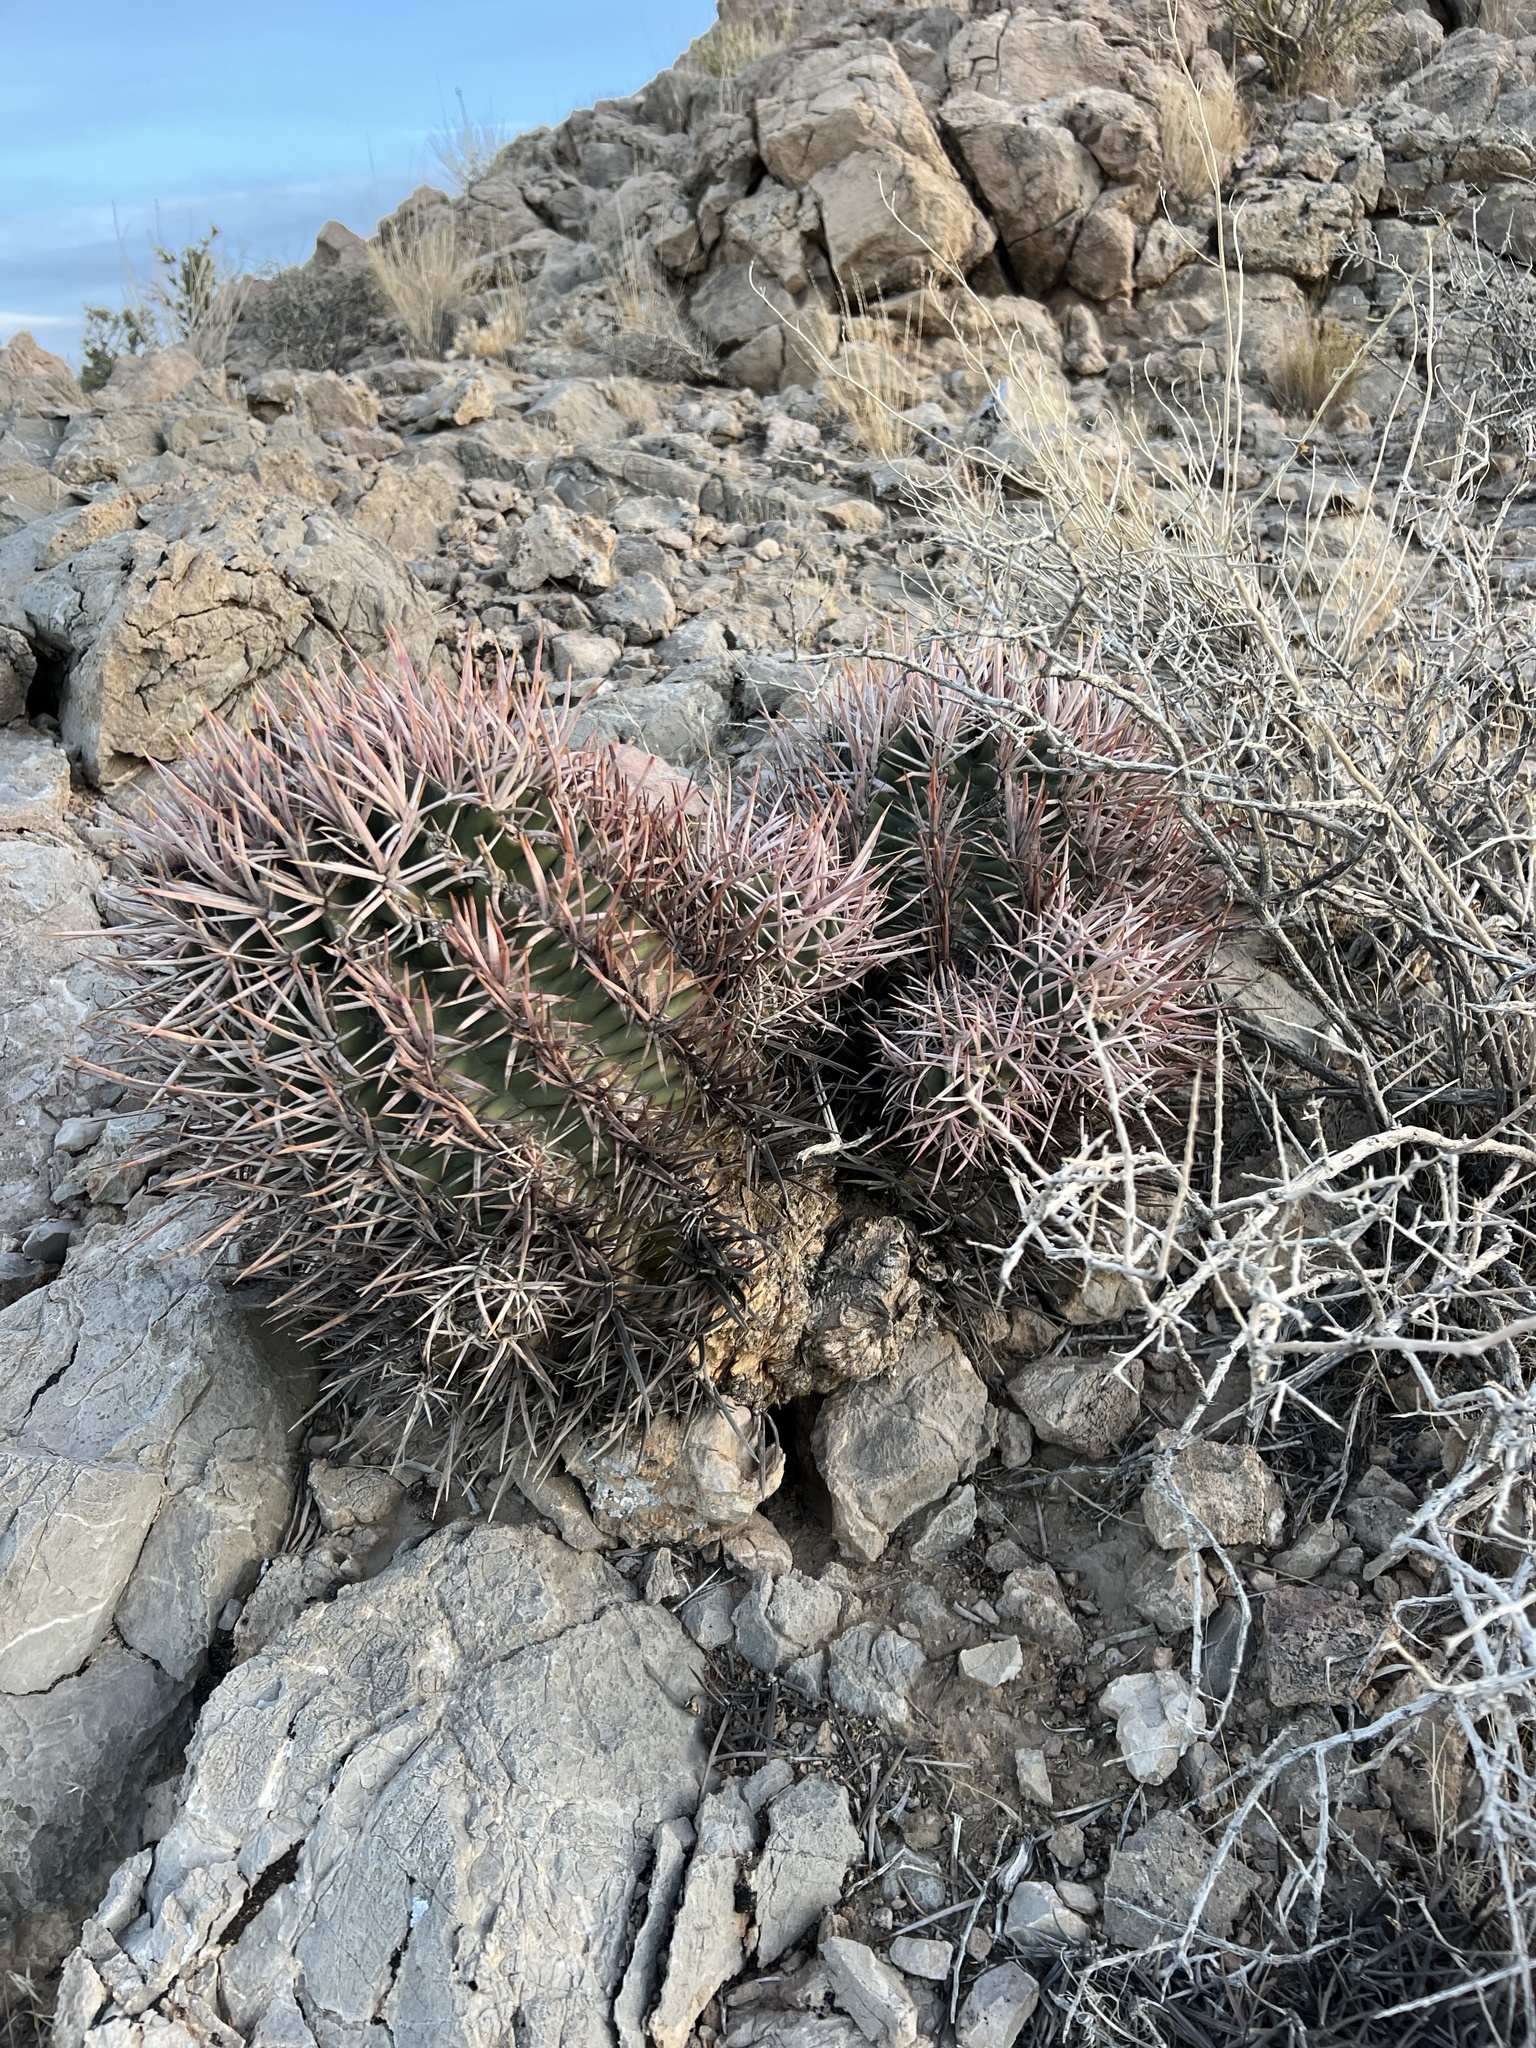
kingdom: Plantae
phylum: Tracheophyta
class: Magnoliopsida
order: Caryophyllales
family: Cactaceae
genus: Echinocactus
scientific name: Echinocactus polycephalus
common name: Cottontop cactus
